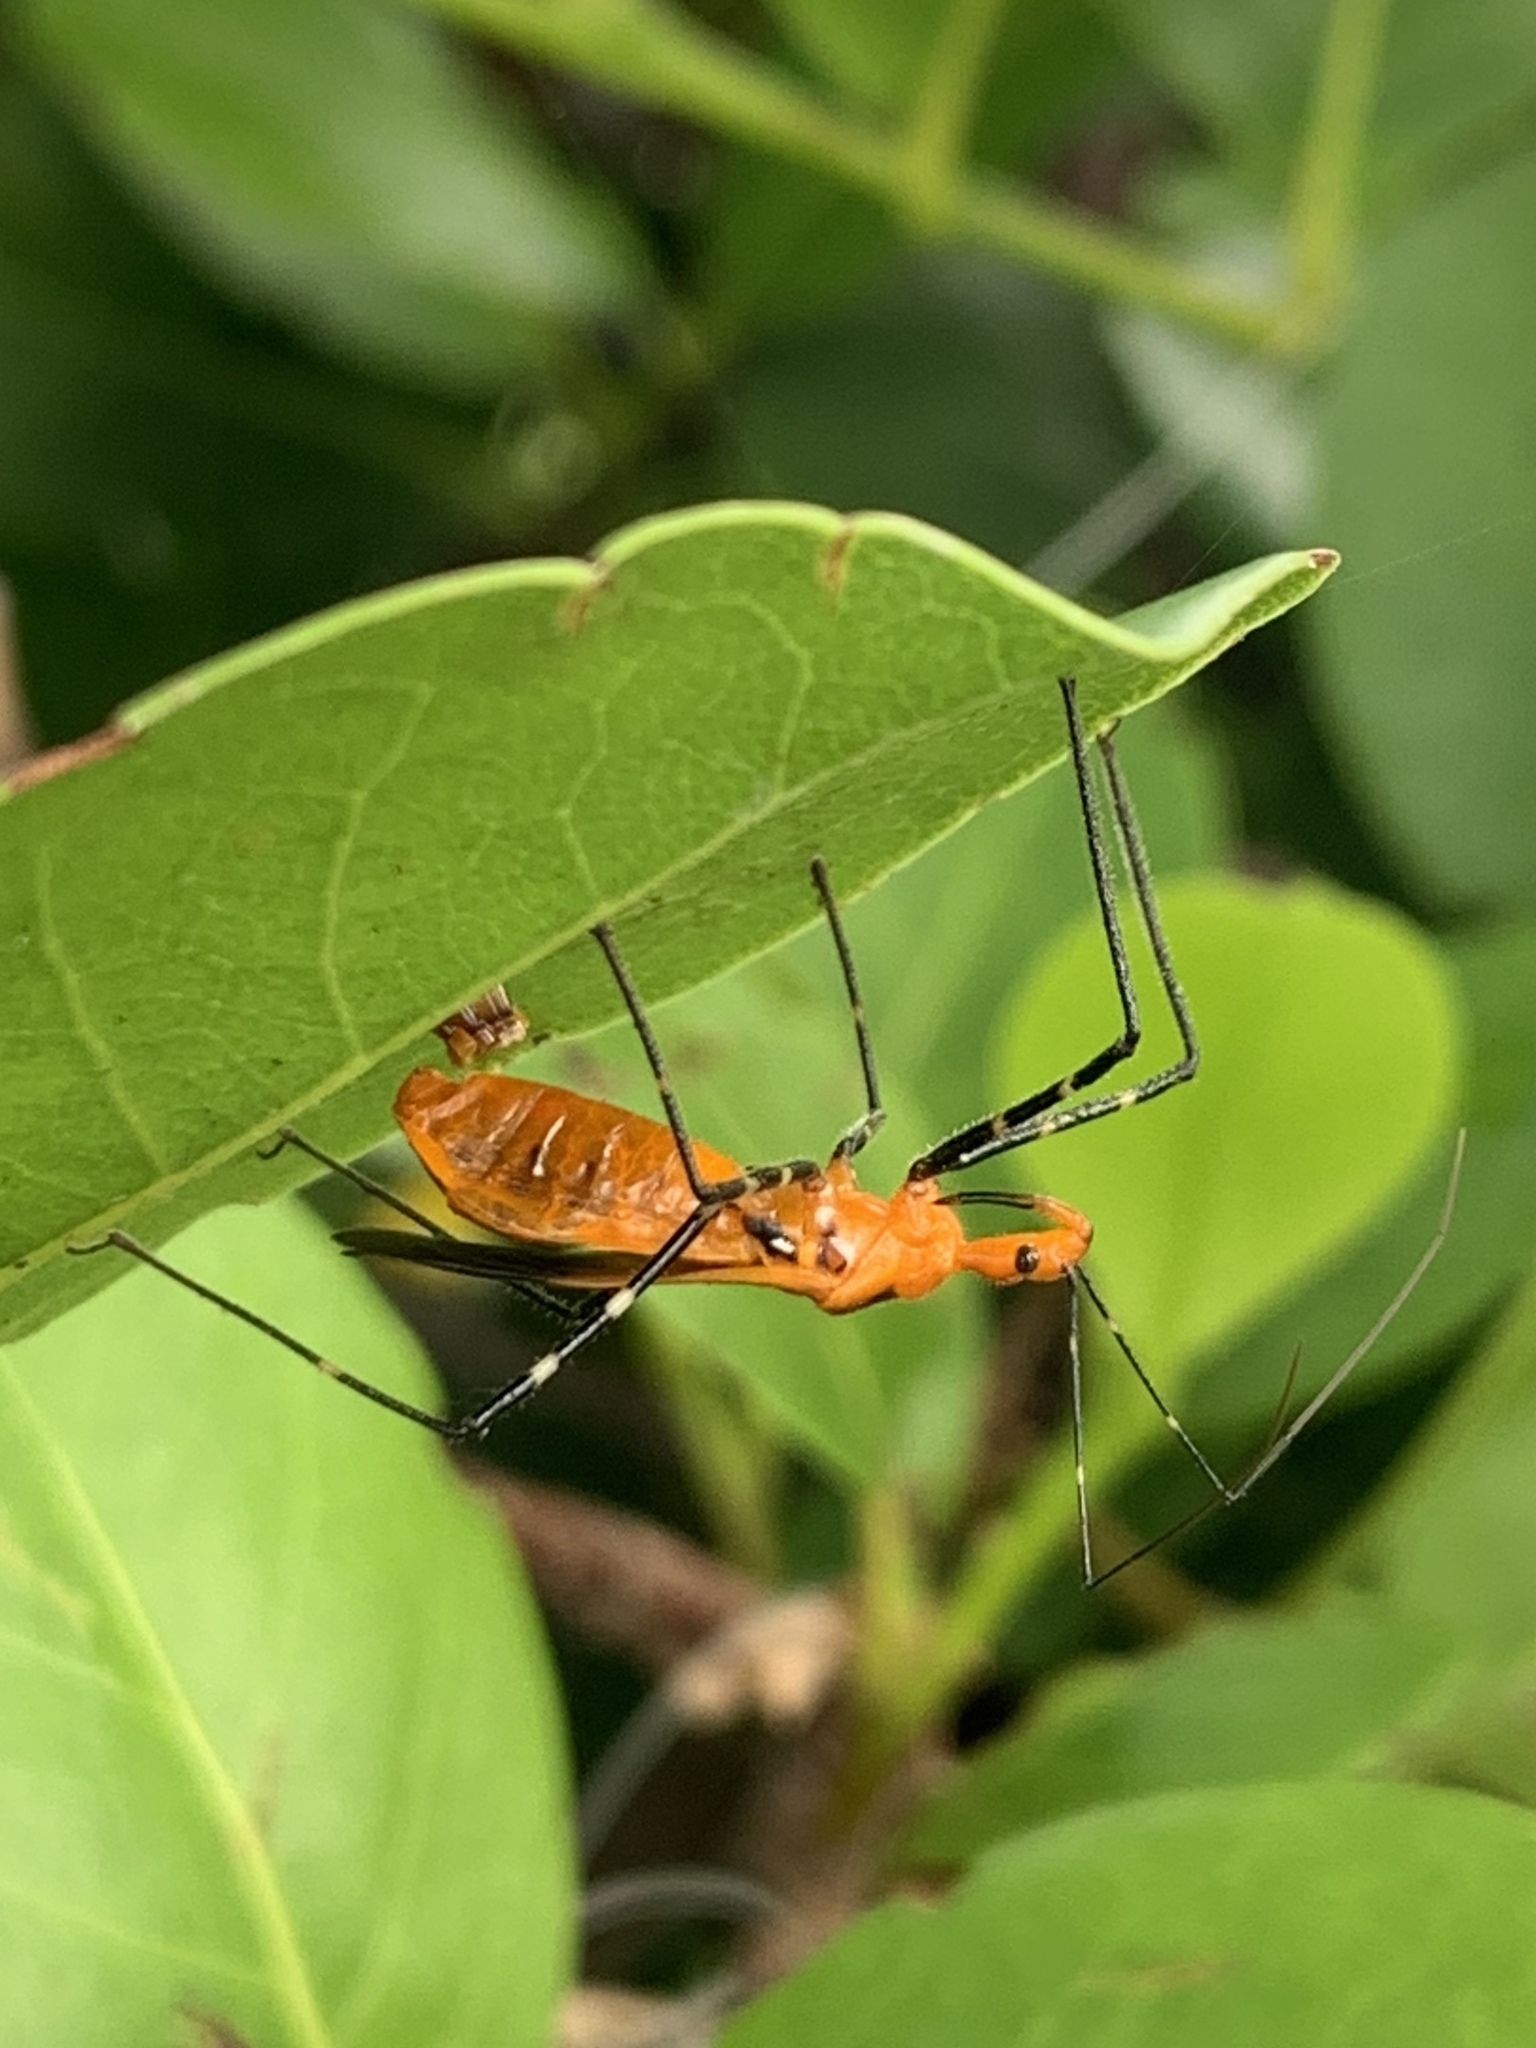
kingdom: Animalia
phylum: Arthropoda
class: Insecta
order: Hemiptera
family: Reduviidae
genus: Zelus
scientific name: Zelus longipes
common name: Milkweed assassin bug
